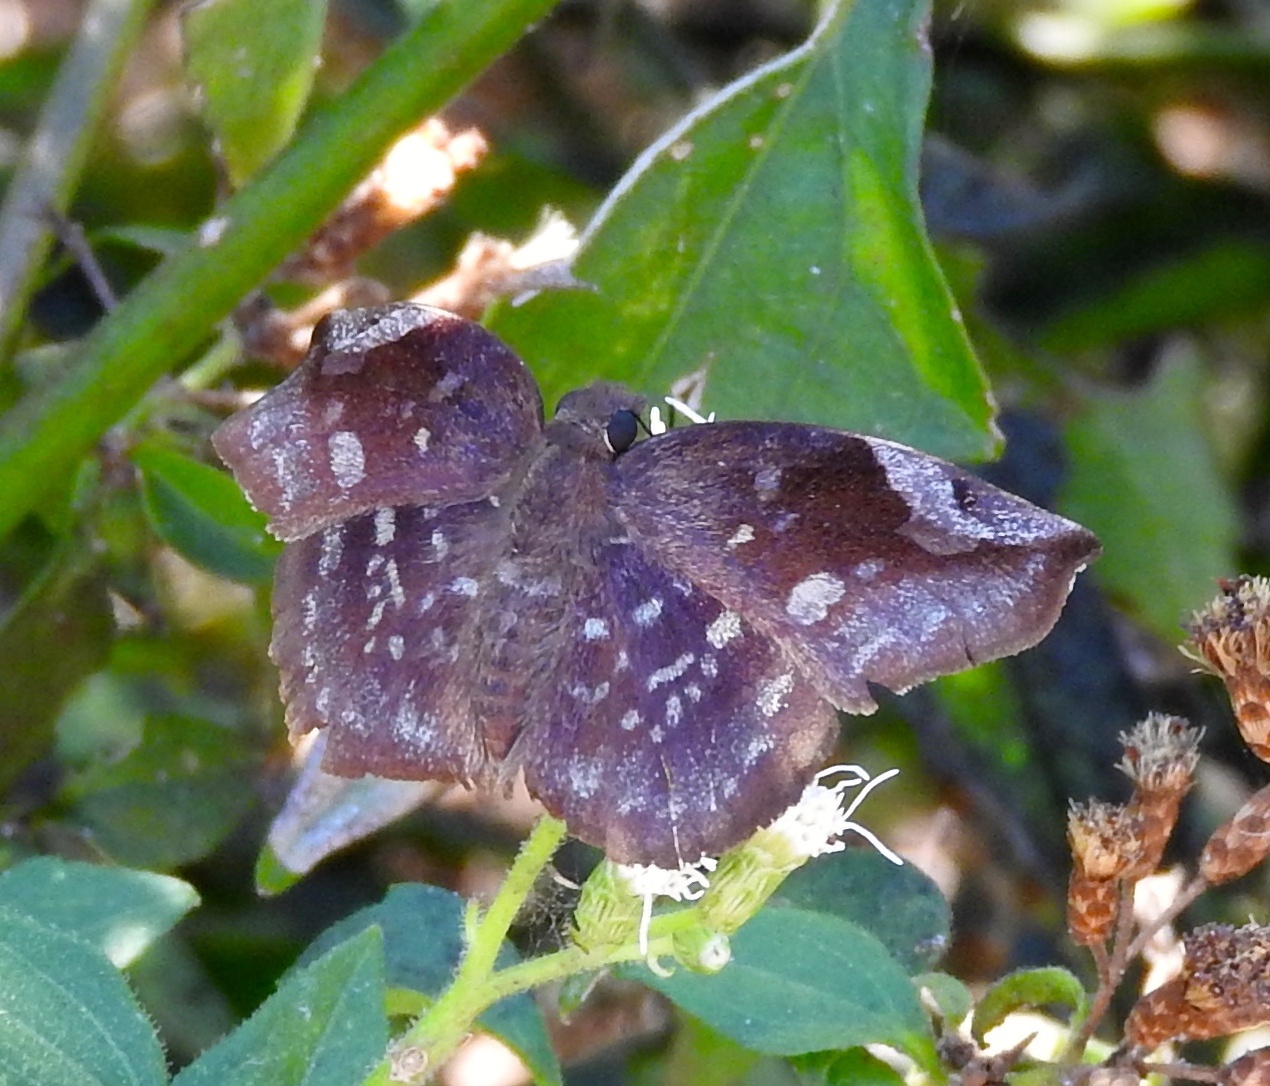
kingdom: Animalia
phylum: Arthropoda
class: Insecta
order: Lepidoptera
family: Hesperiidae
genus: Achlyodes
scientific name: Achlyodes thraso
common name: Sickle-winged skipper
